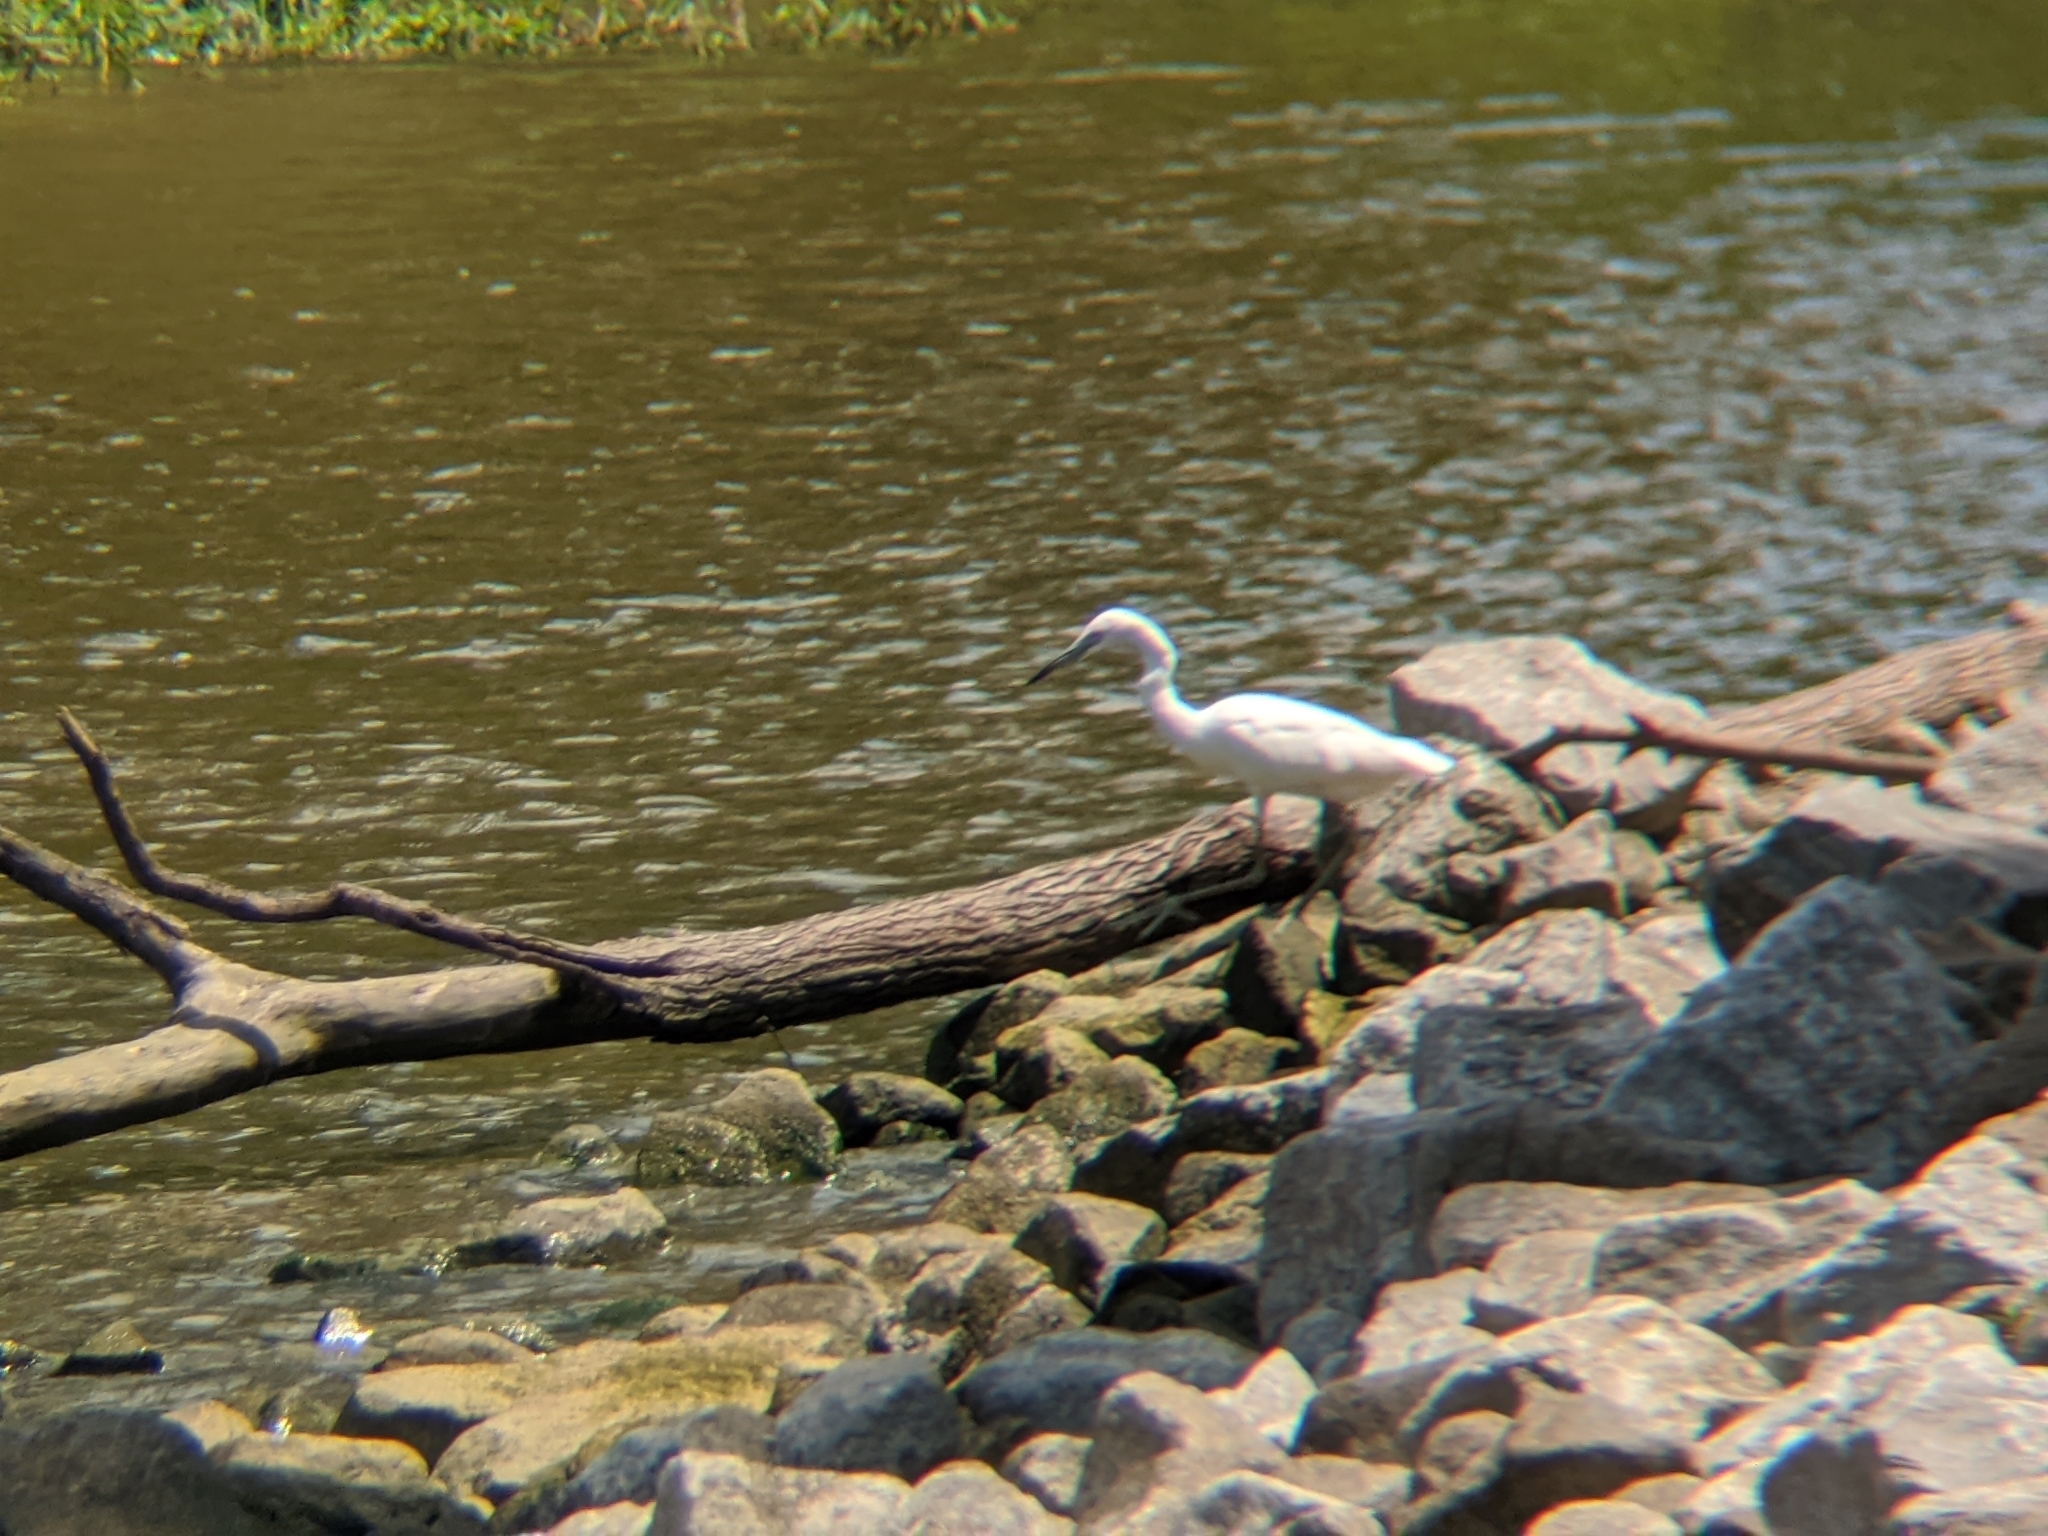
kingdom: Animalia
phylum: Chordata
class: Aves
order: Pelecaniformes
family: Ardeidae
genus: Egretta
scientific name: Egretta caerulea
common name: Little blue heron
